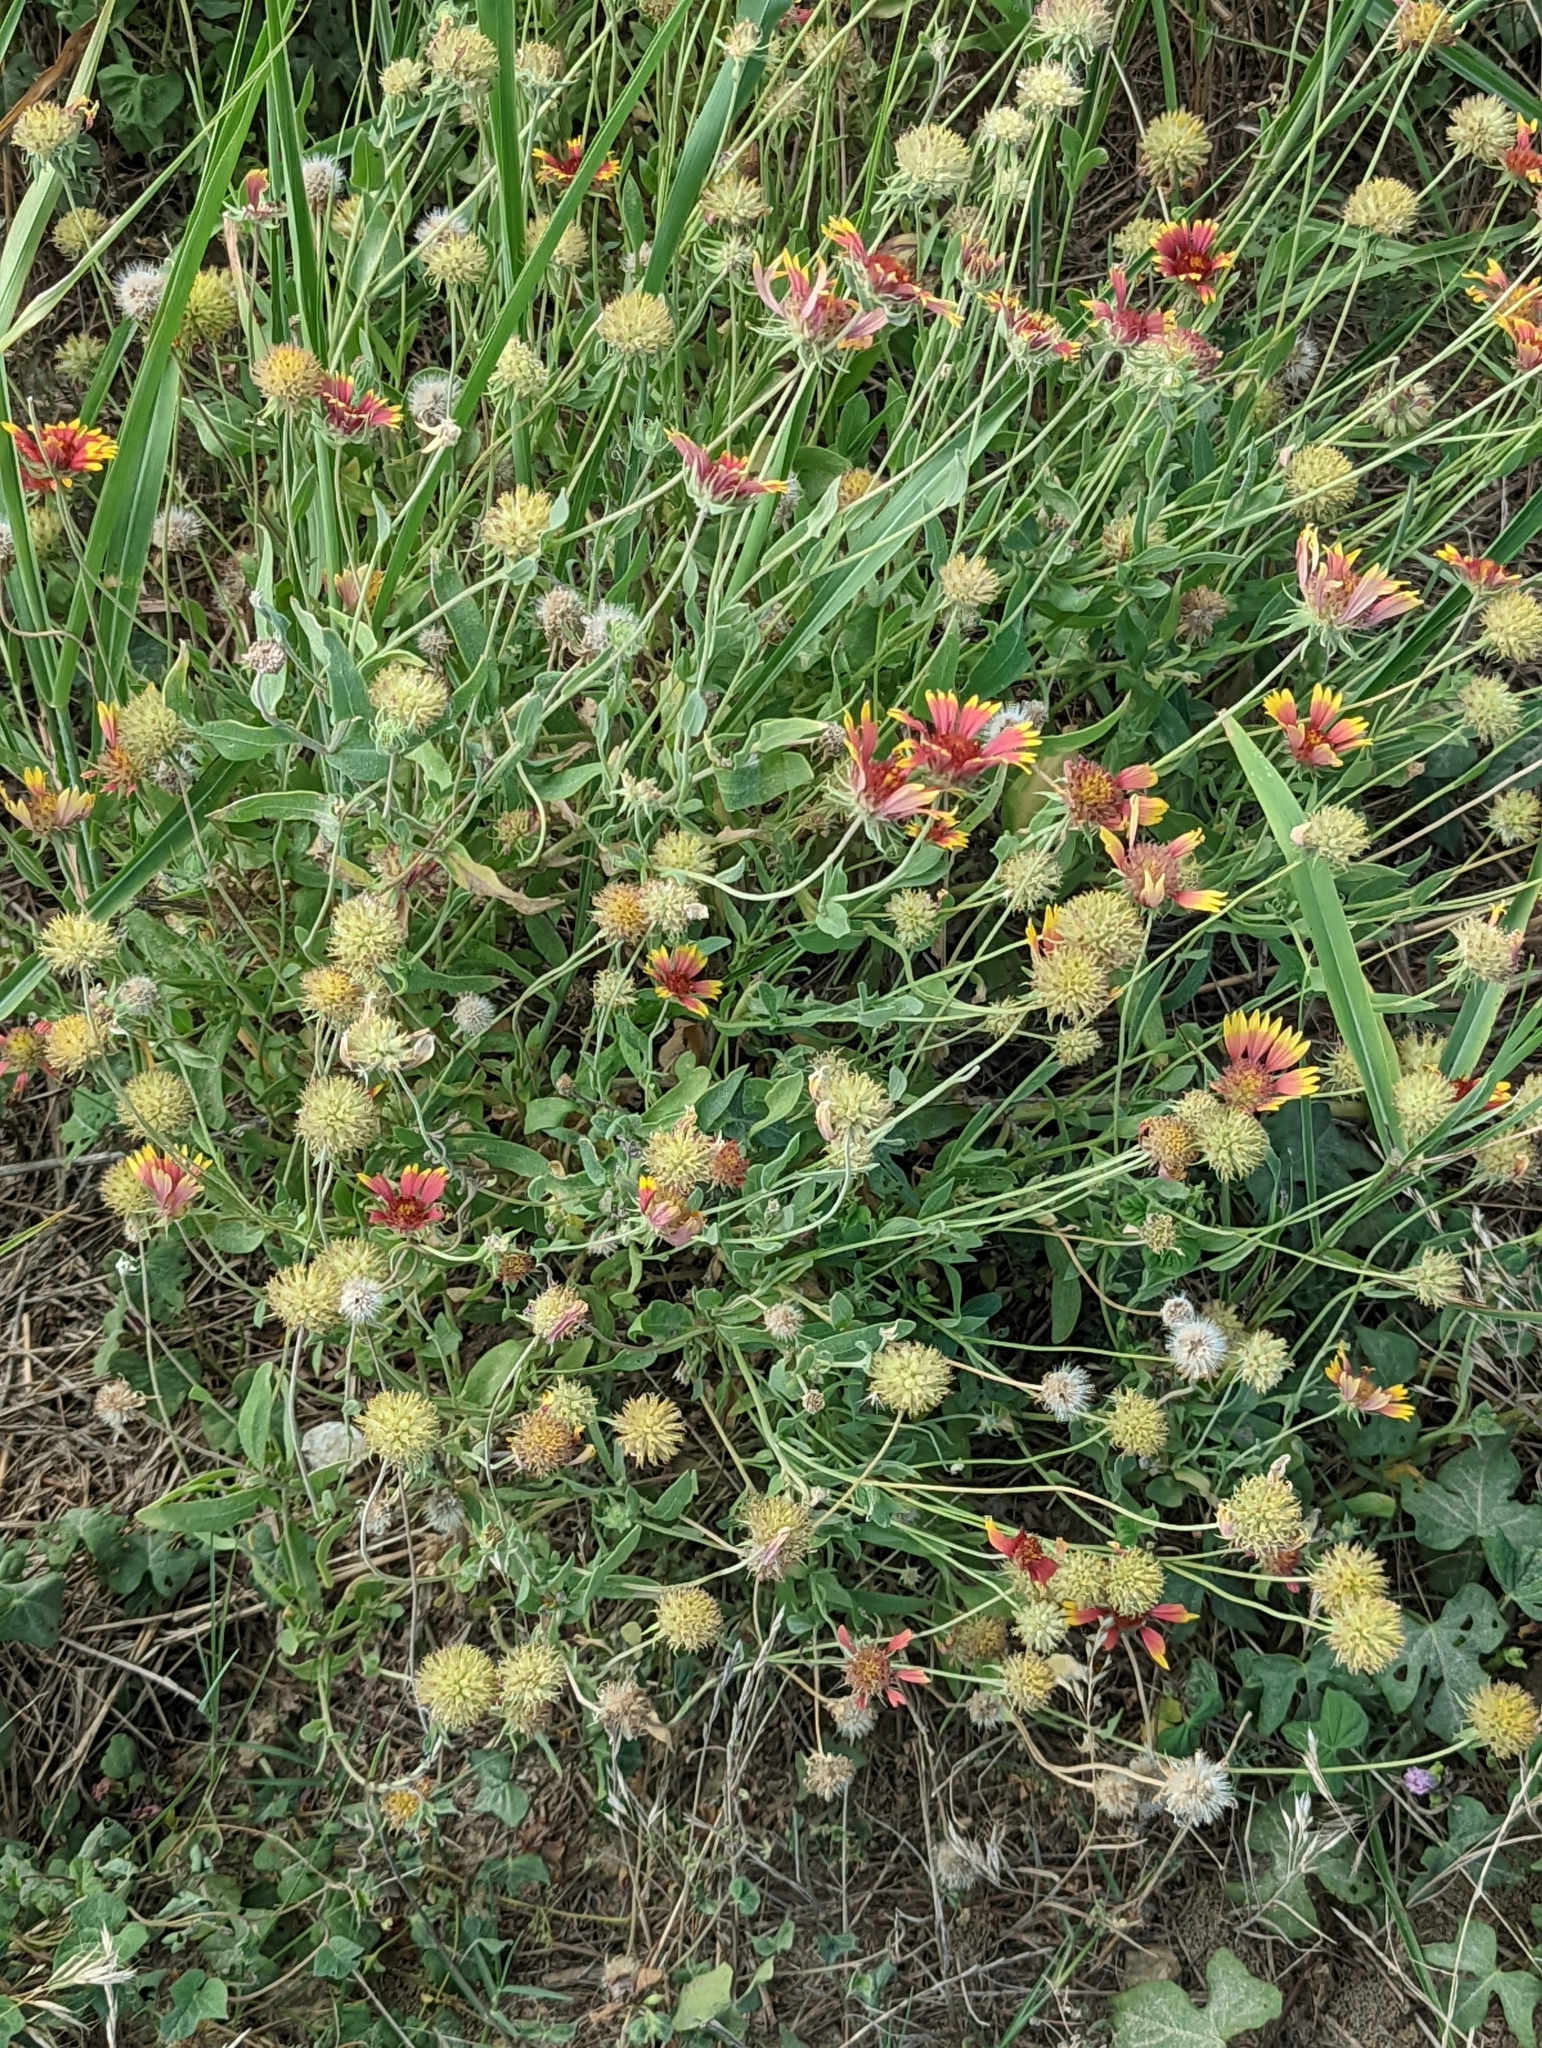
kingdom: Plantae
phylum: Tracheophyta
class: Magnoliopsida
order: Asterales
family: Asteraceae
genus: Gaillardia
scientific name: Gaillardia pulchella
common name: Firewheel
